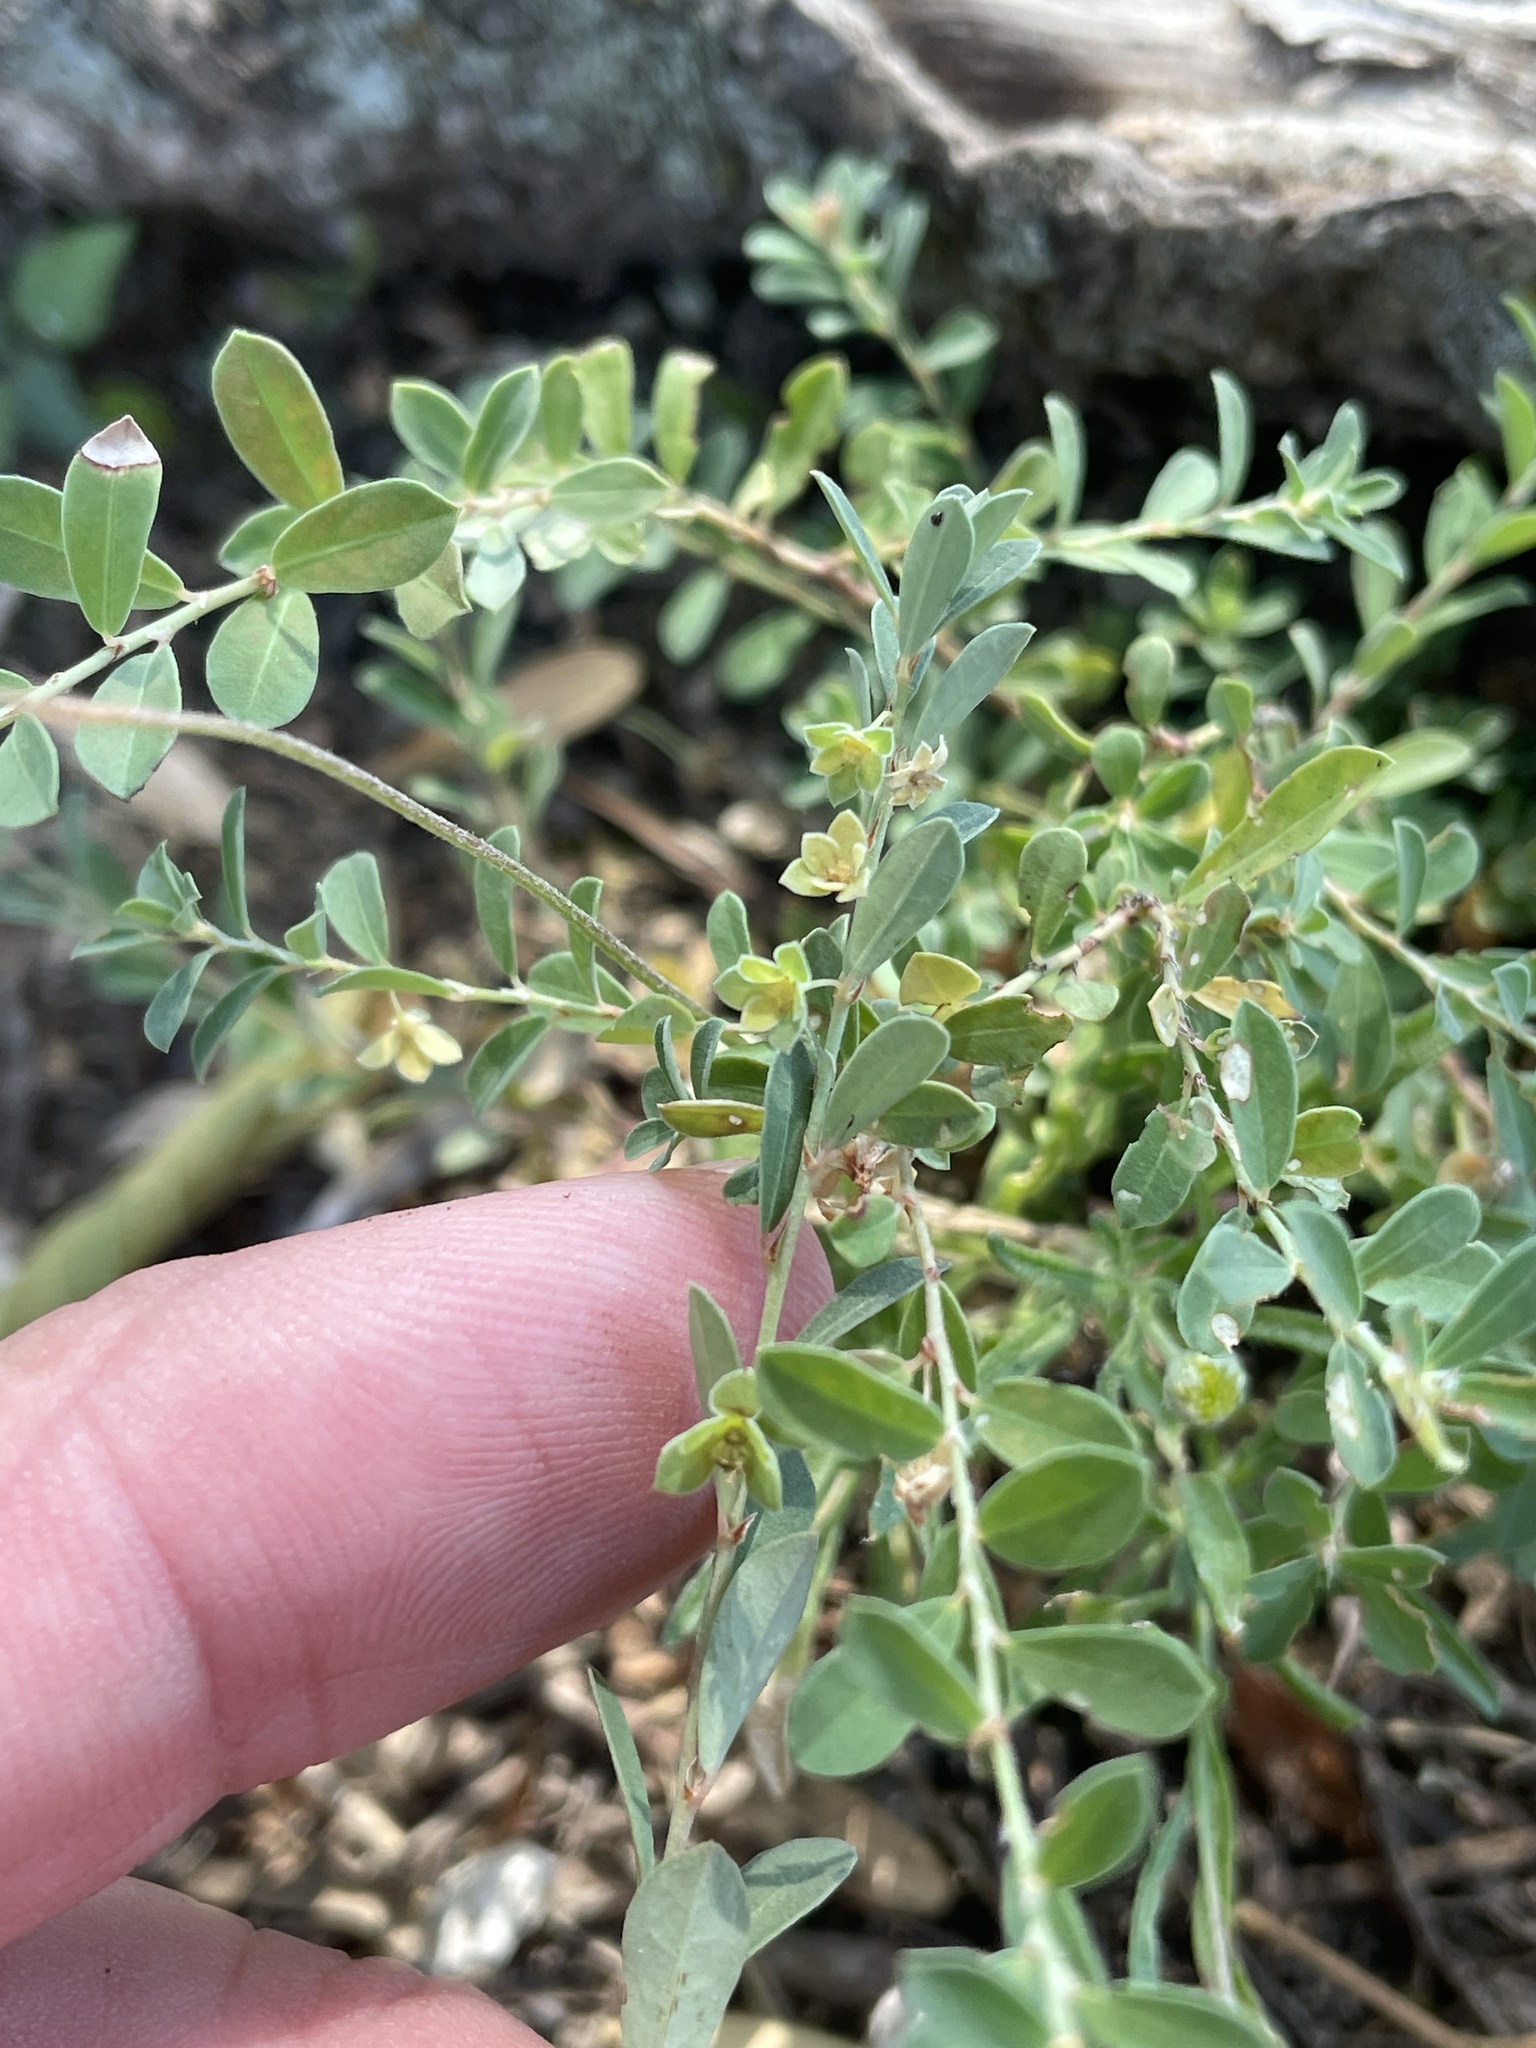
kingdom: Plantae
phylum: Tracheophyta
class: Magnoliopsida
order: Malpighiales
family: Phyllanthaceae
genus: Phyllanthus
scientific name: Phyllanthus polygonoides
